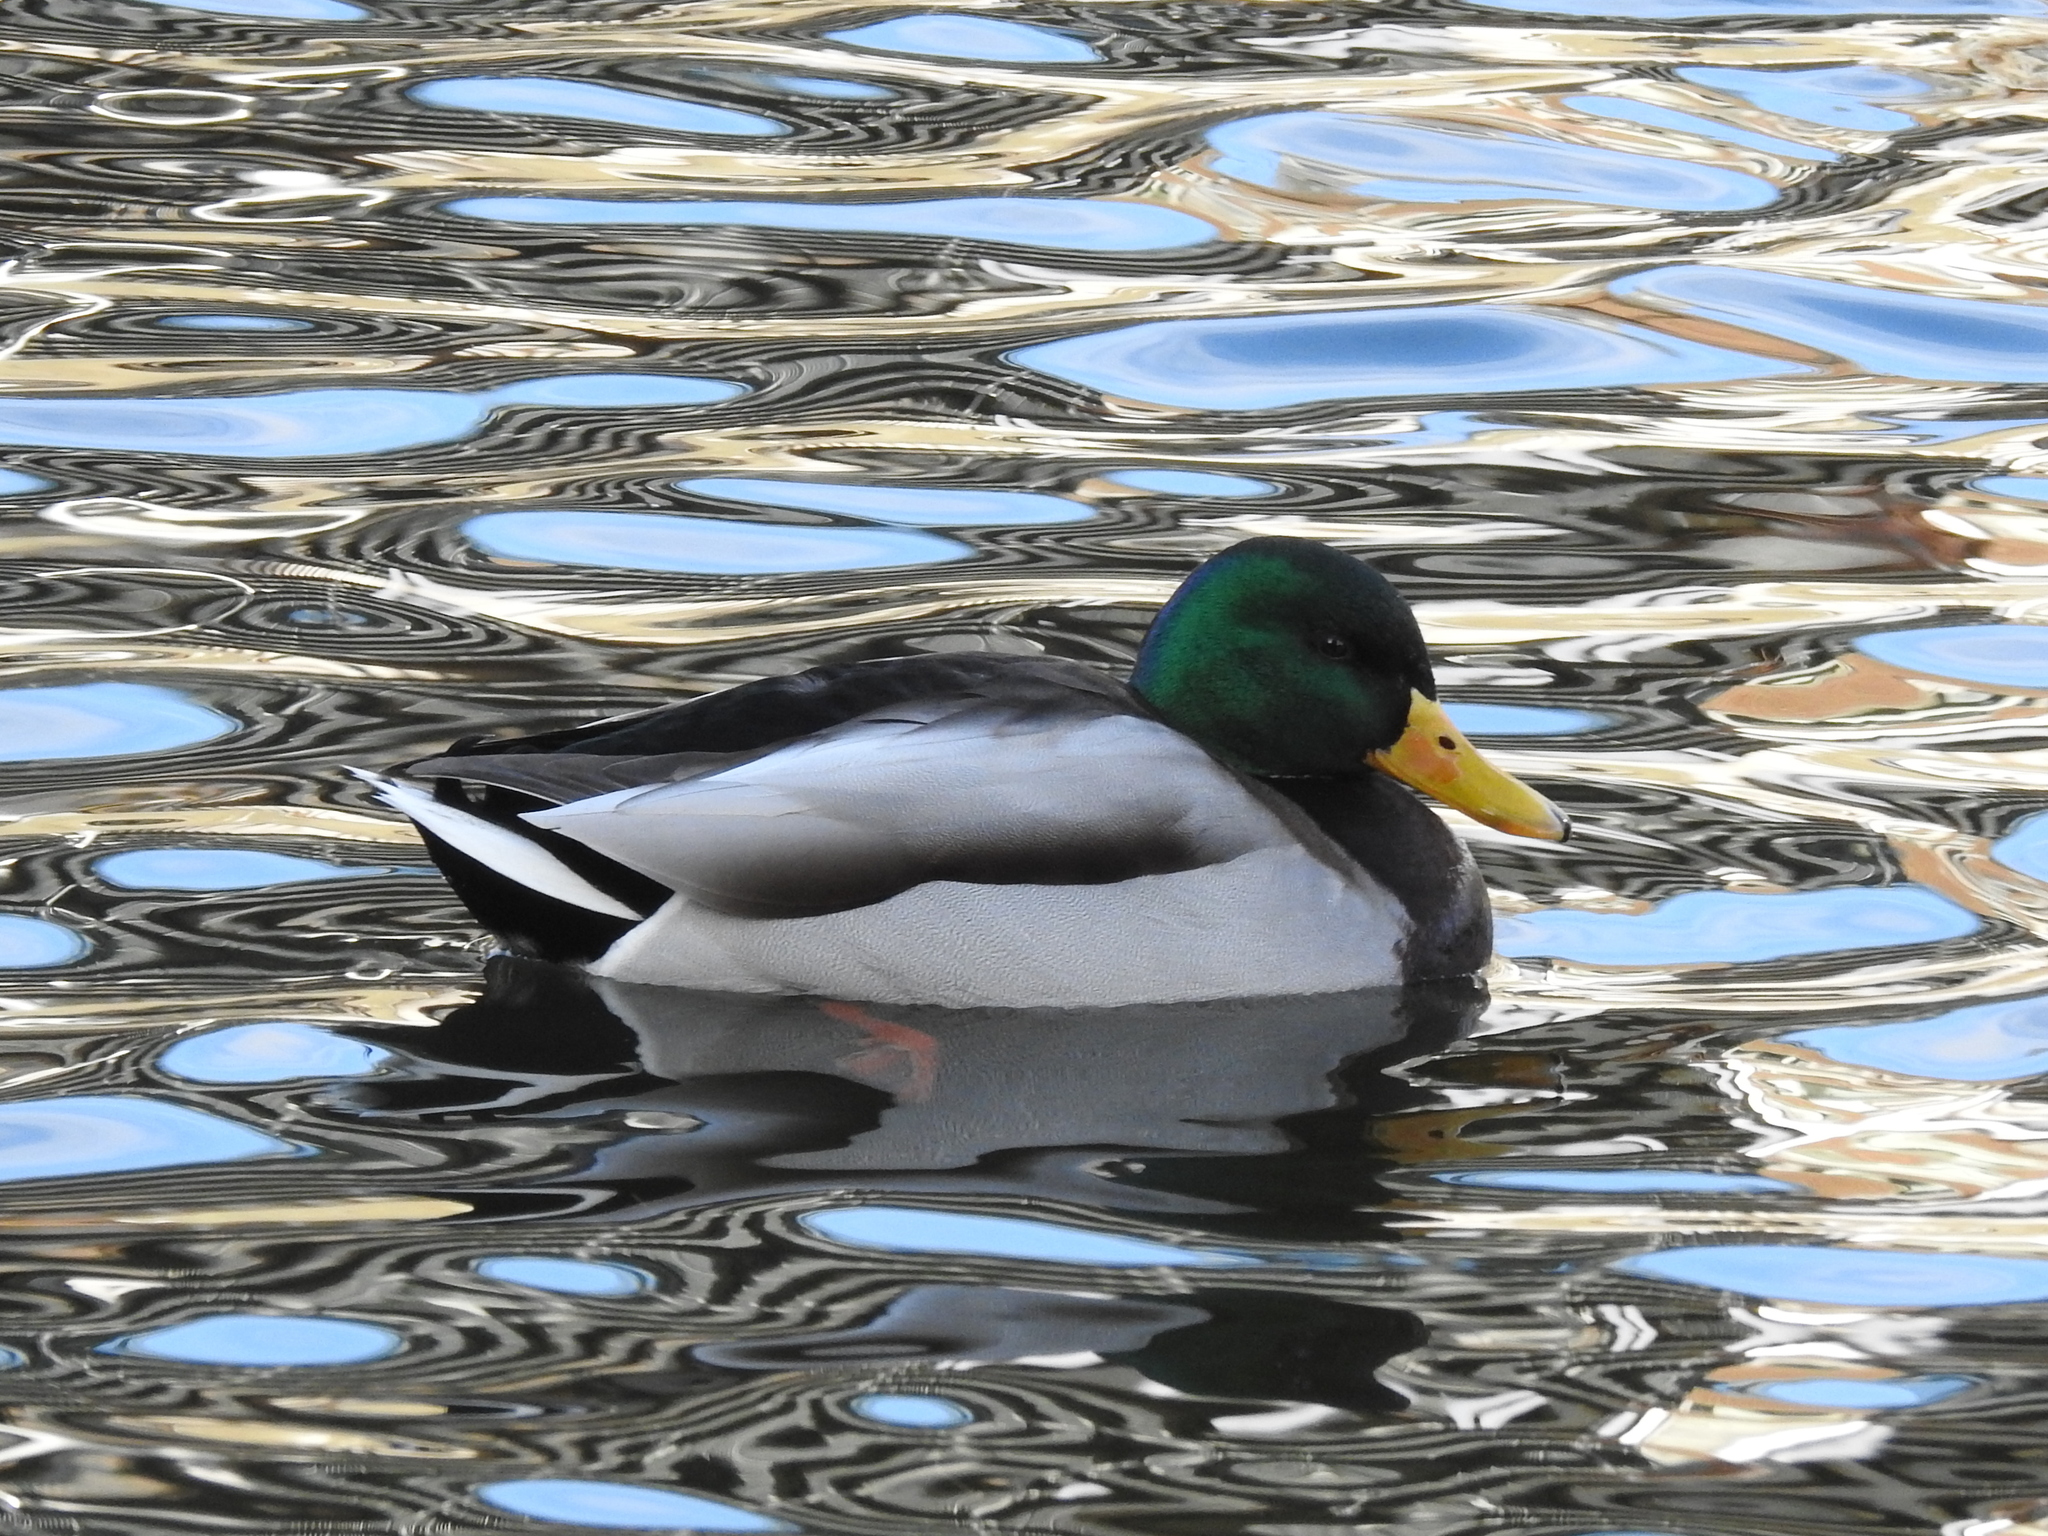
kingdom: Animalia
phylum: Chordata
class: Aves
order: Anseriformes
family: Anatidae
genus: Anas
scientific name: Anas platyrhynchos
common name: Mallard
